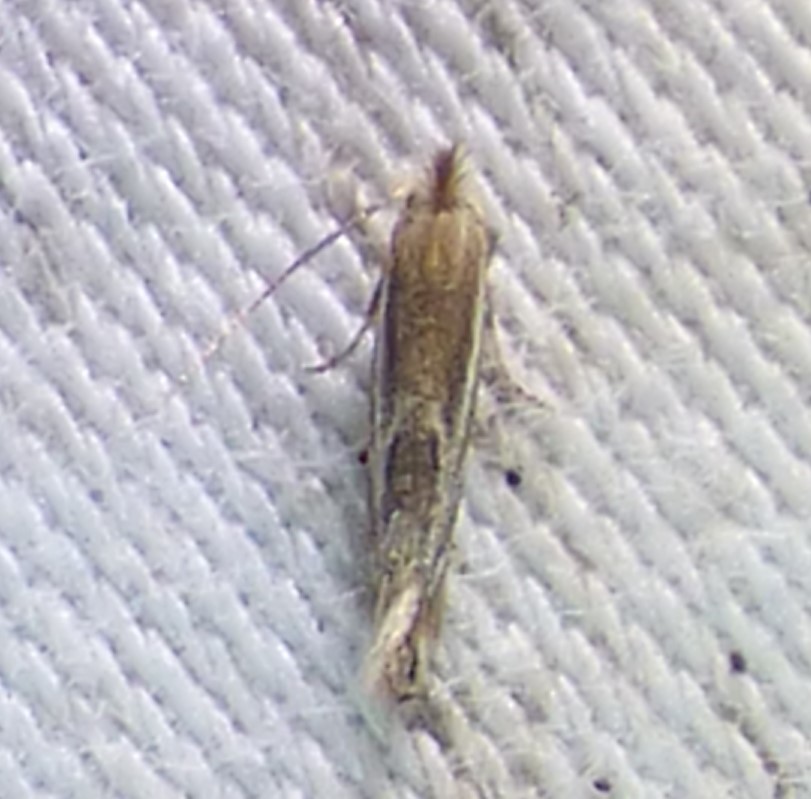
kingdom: Animalia
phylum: Arthropoda
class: Insecta
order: Lepidoptera
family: Bucculatricidae
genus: Bucculatrix
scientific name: Bucculatrix angustata
